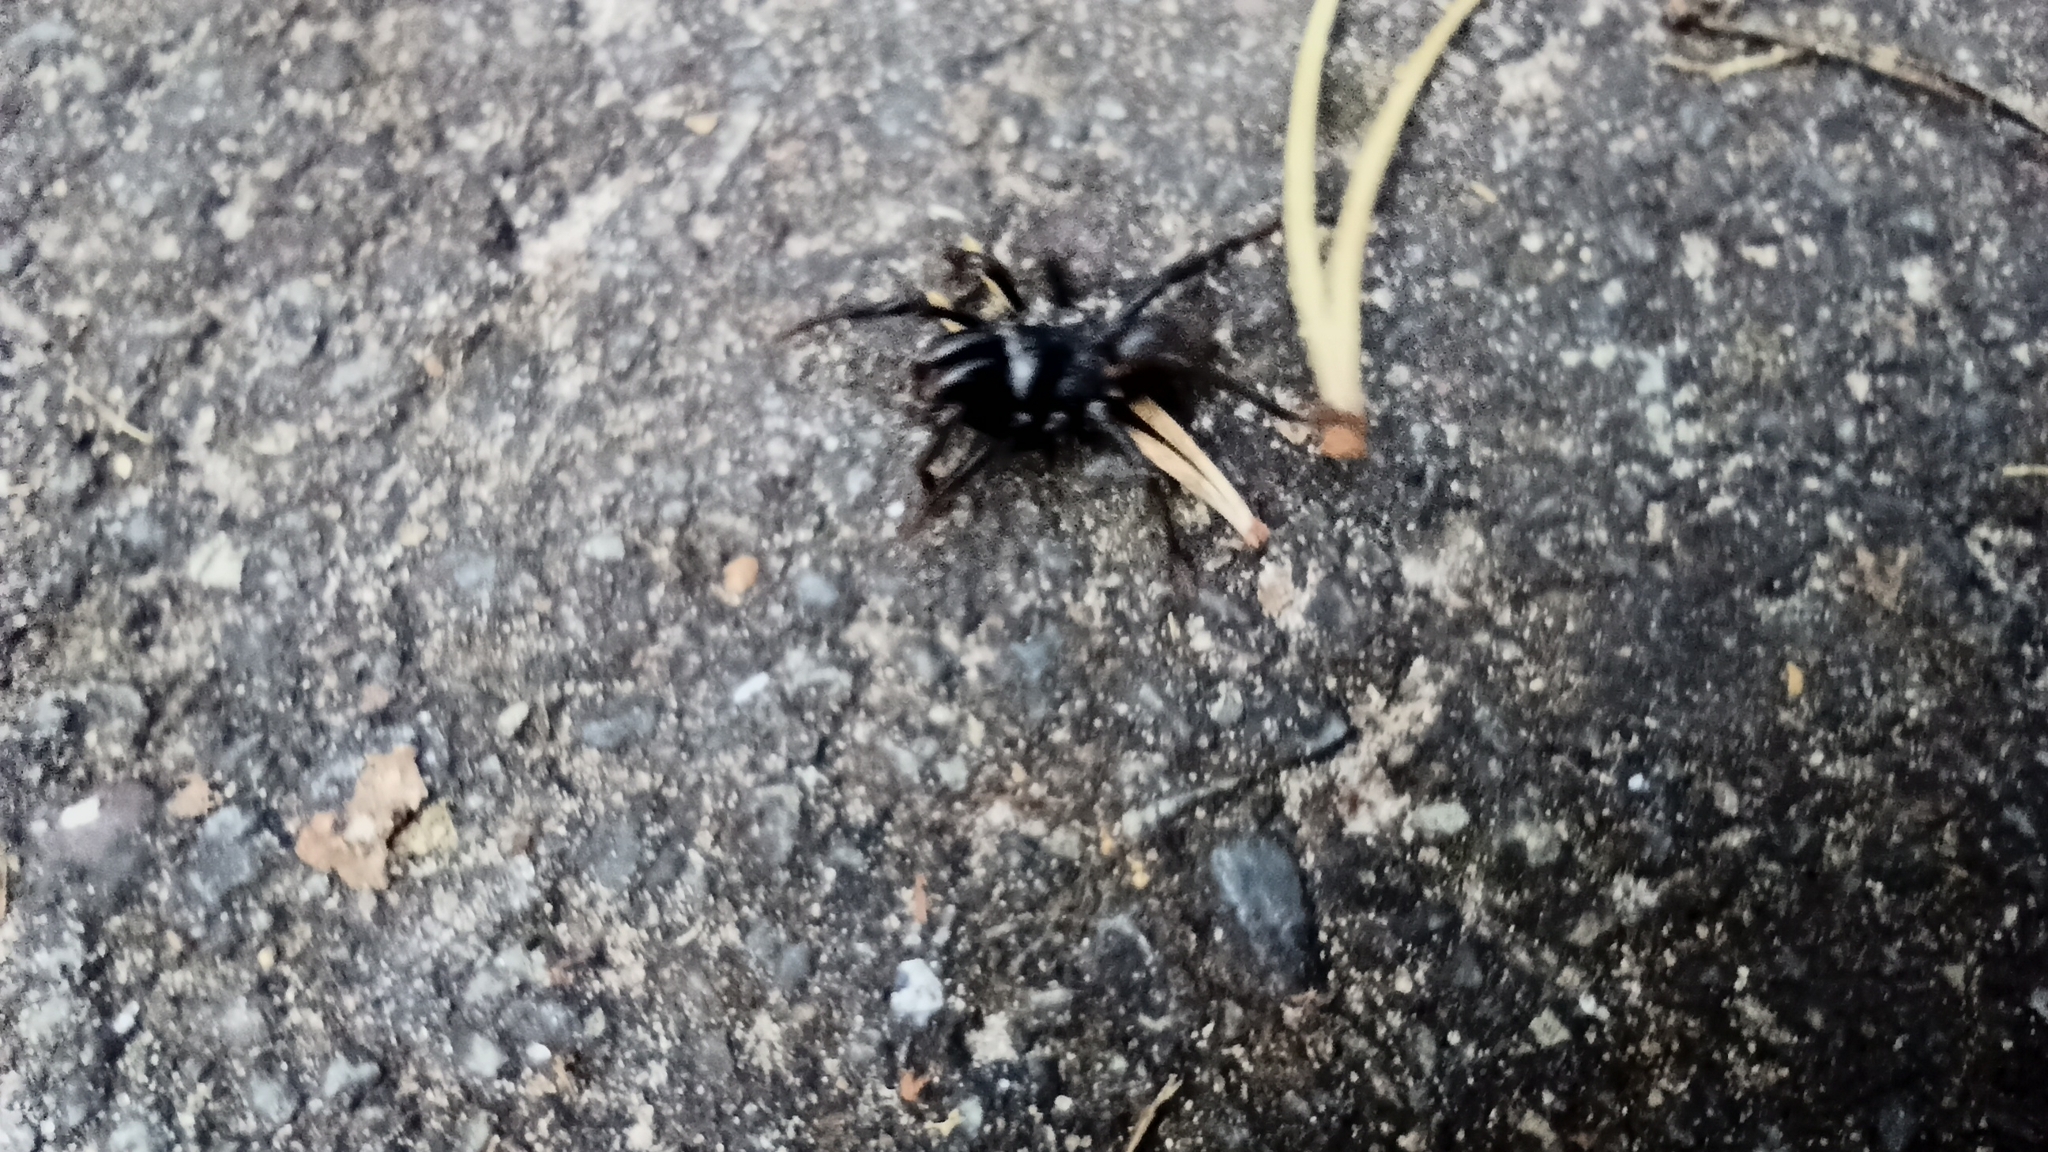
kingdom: Animalia
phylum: Arthropoda
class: Arachnida
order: Araneae
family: Atypidae
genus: Atypus
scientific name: Atypus affinis
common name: Purse web spider
